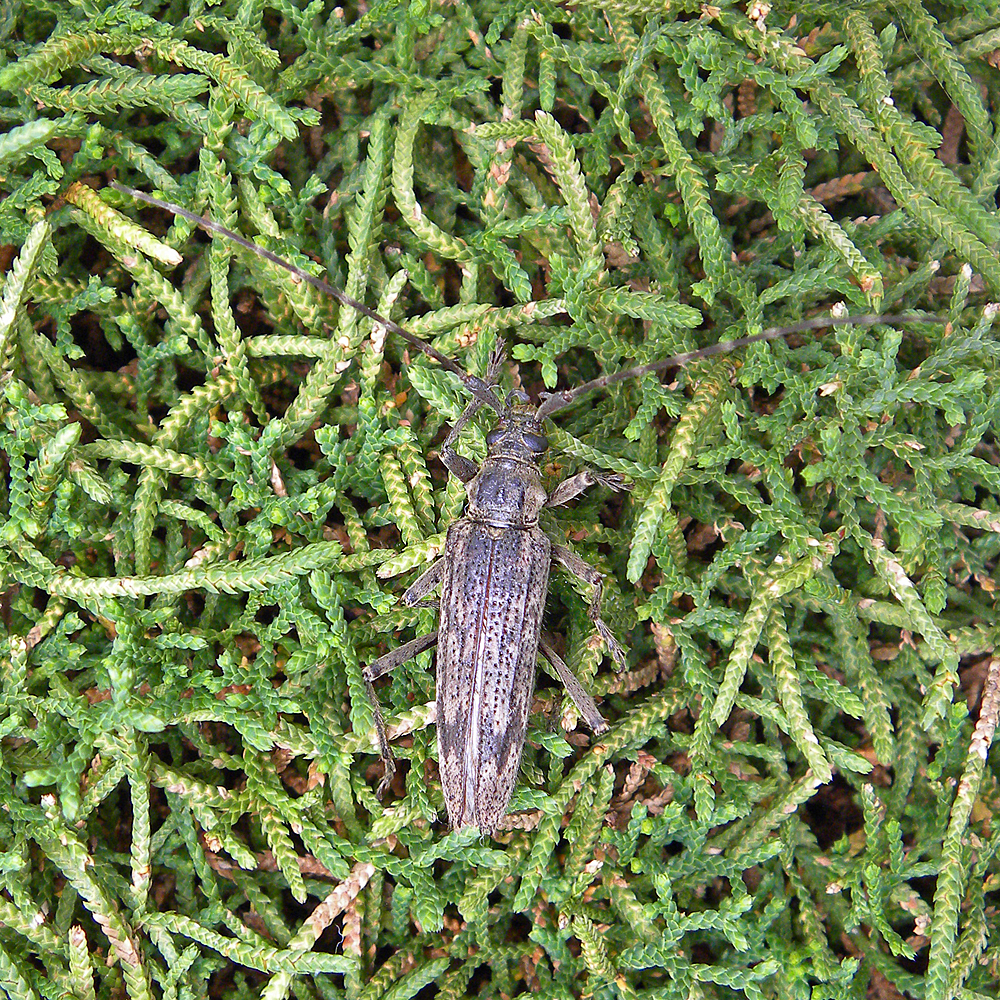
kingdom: Animalia
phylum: Arthropoda
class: Insecta
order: Coleoptera
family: Cerambycidae
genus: Elytrimitatrix
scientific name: Elytrimitatrix undata
